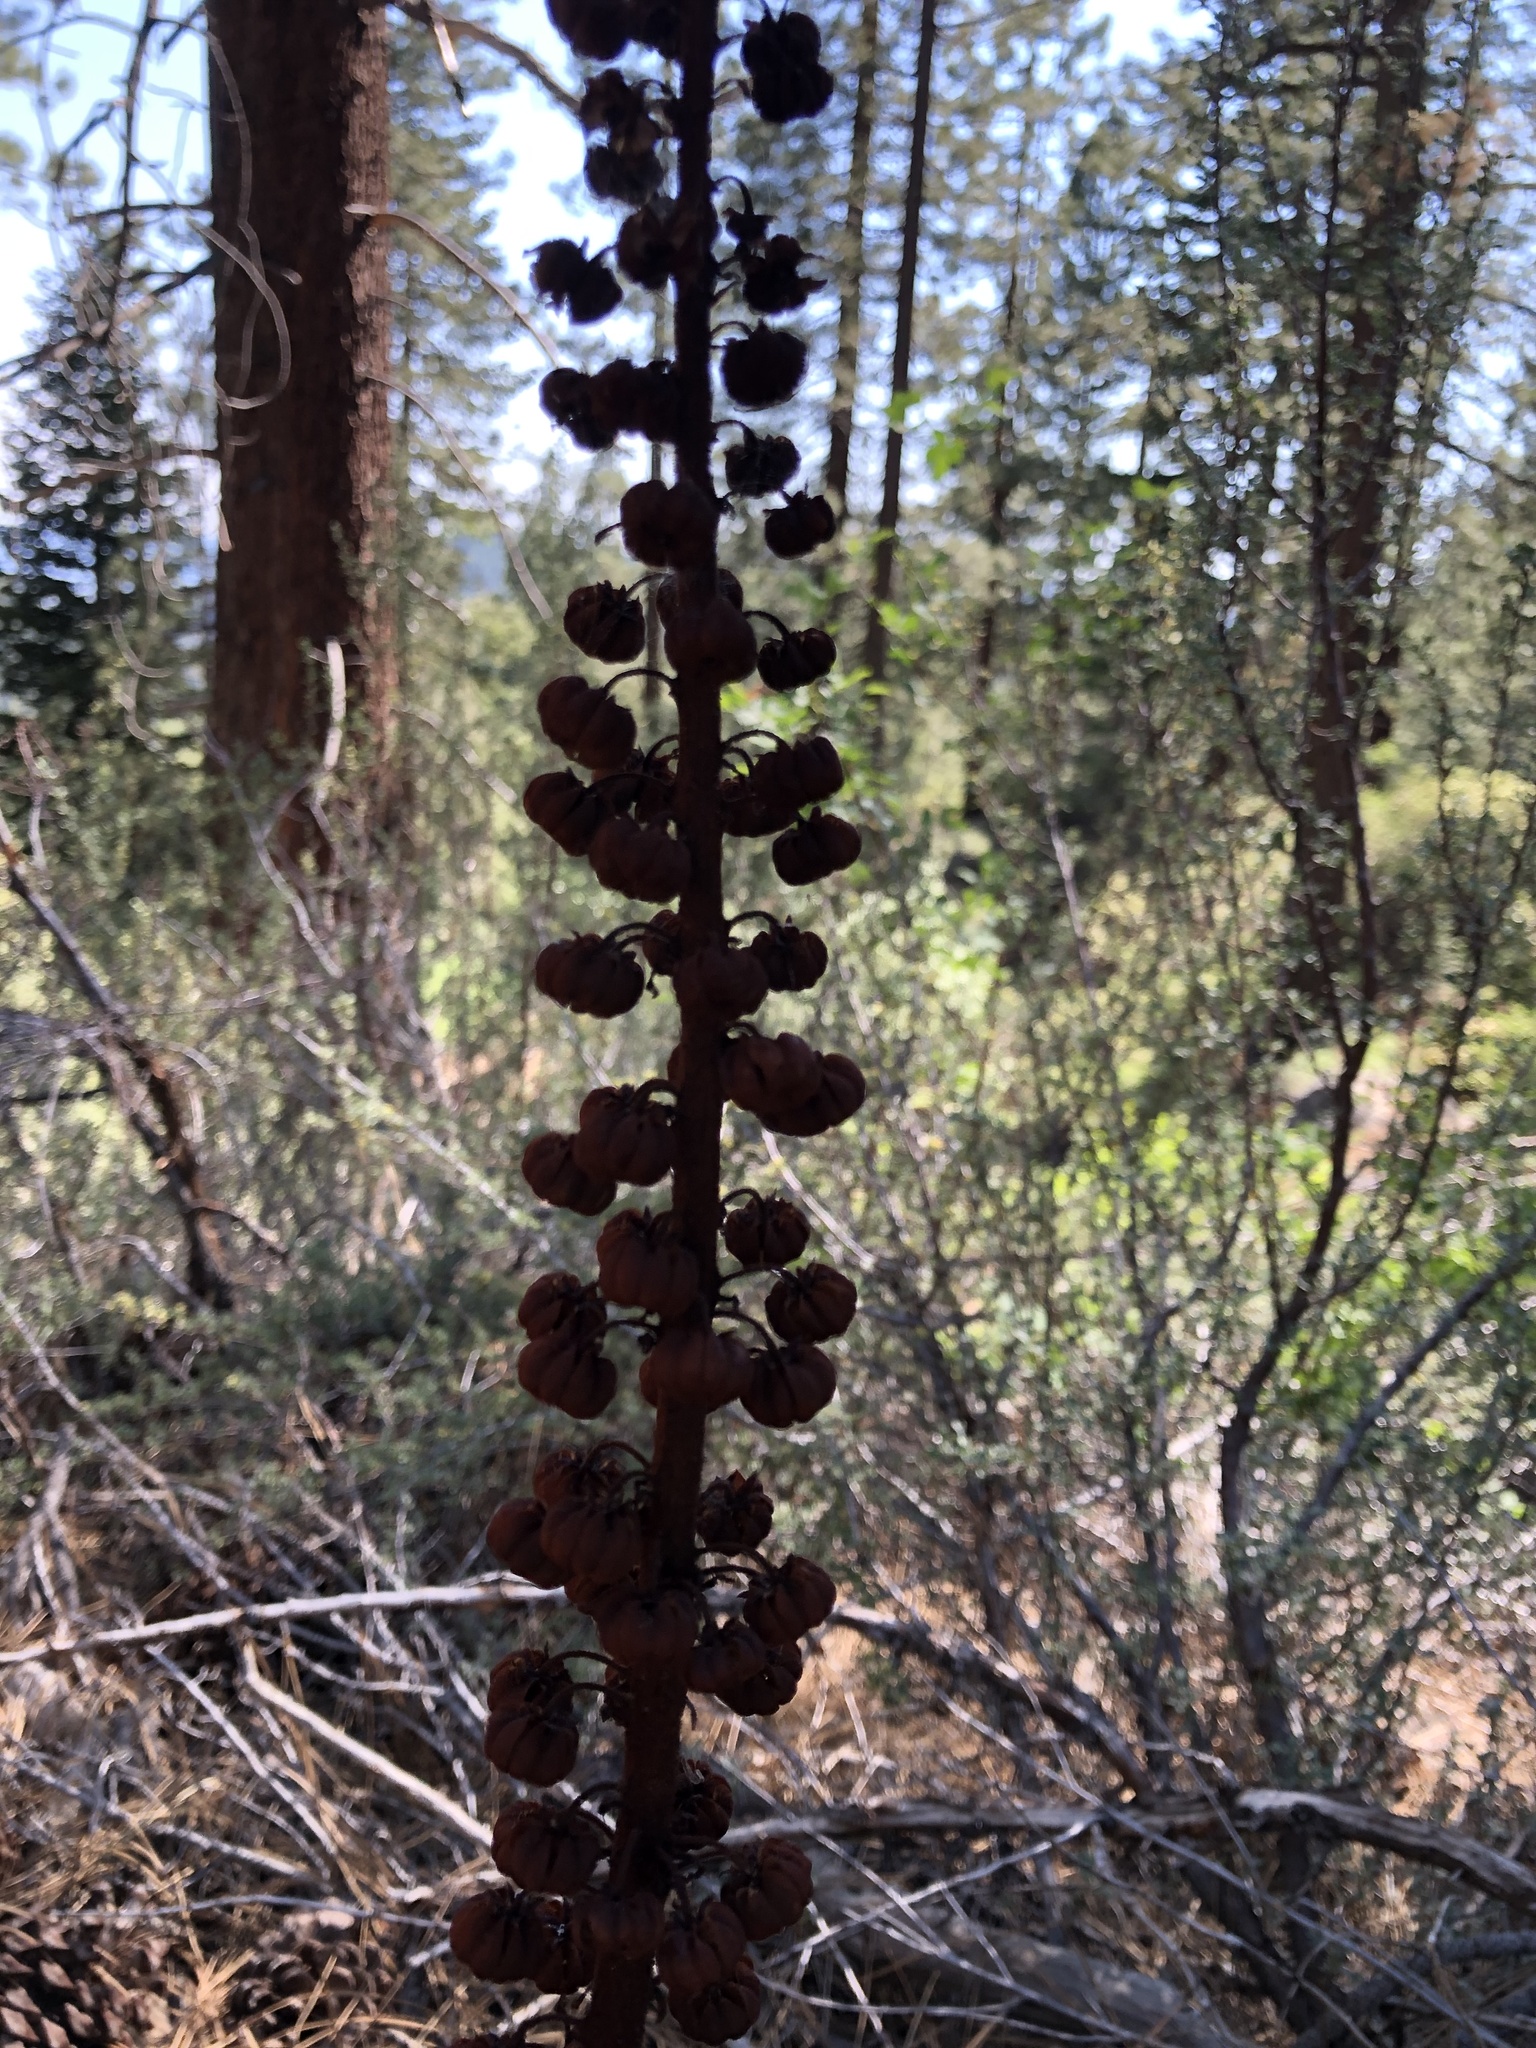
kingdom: Plantae
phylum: Tracheophyta
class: Magnoliopsida
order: Ericales
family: Ericaceae
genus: Pterospora
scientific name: Pterospora andromedea
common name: Giant bird's-nest
